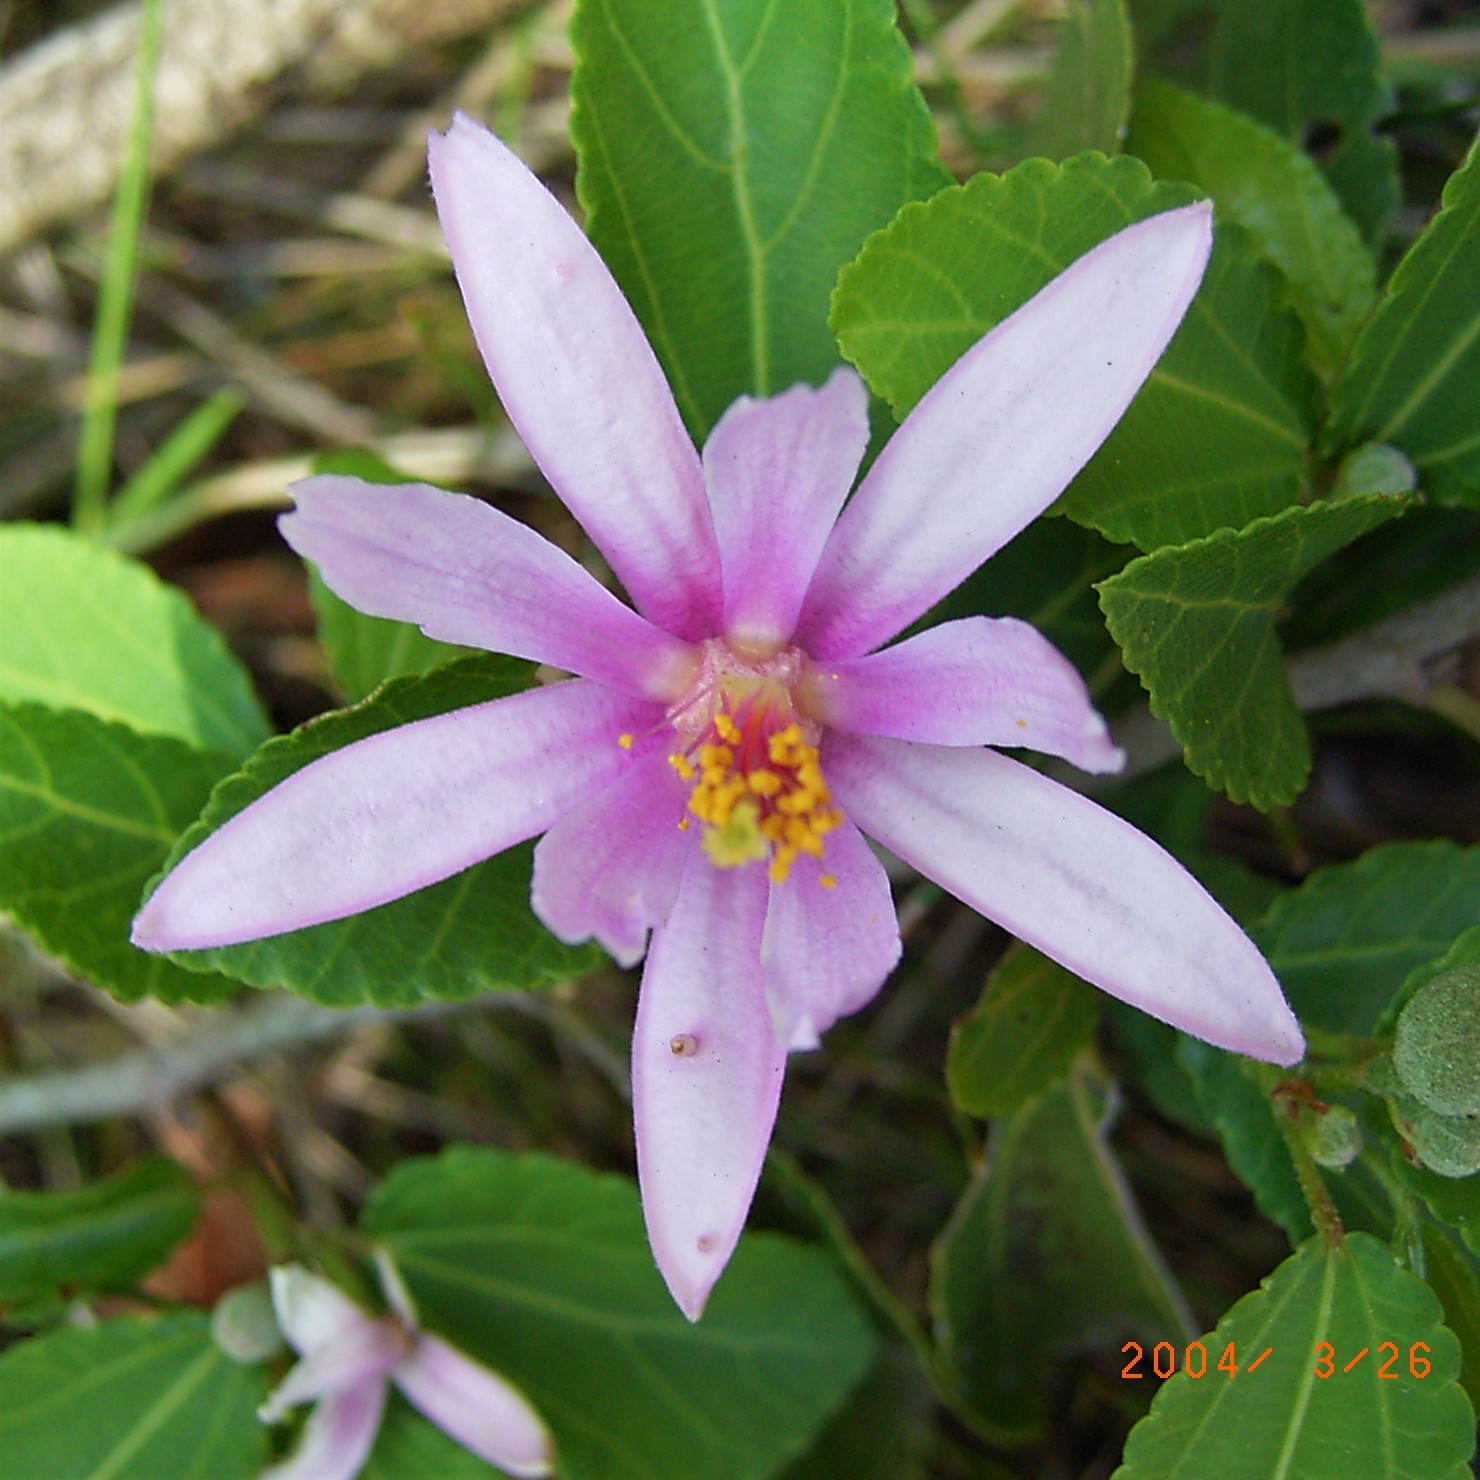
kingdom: Plantae
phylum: Tracheophyta
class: Magnoliopsida
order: Malvales
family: Malvaceae
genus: Grewia
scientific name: Grewia occidentalis
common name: Crossberry
